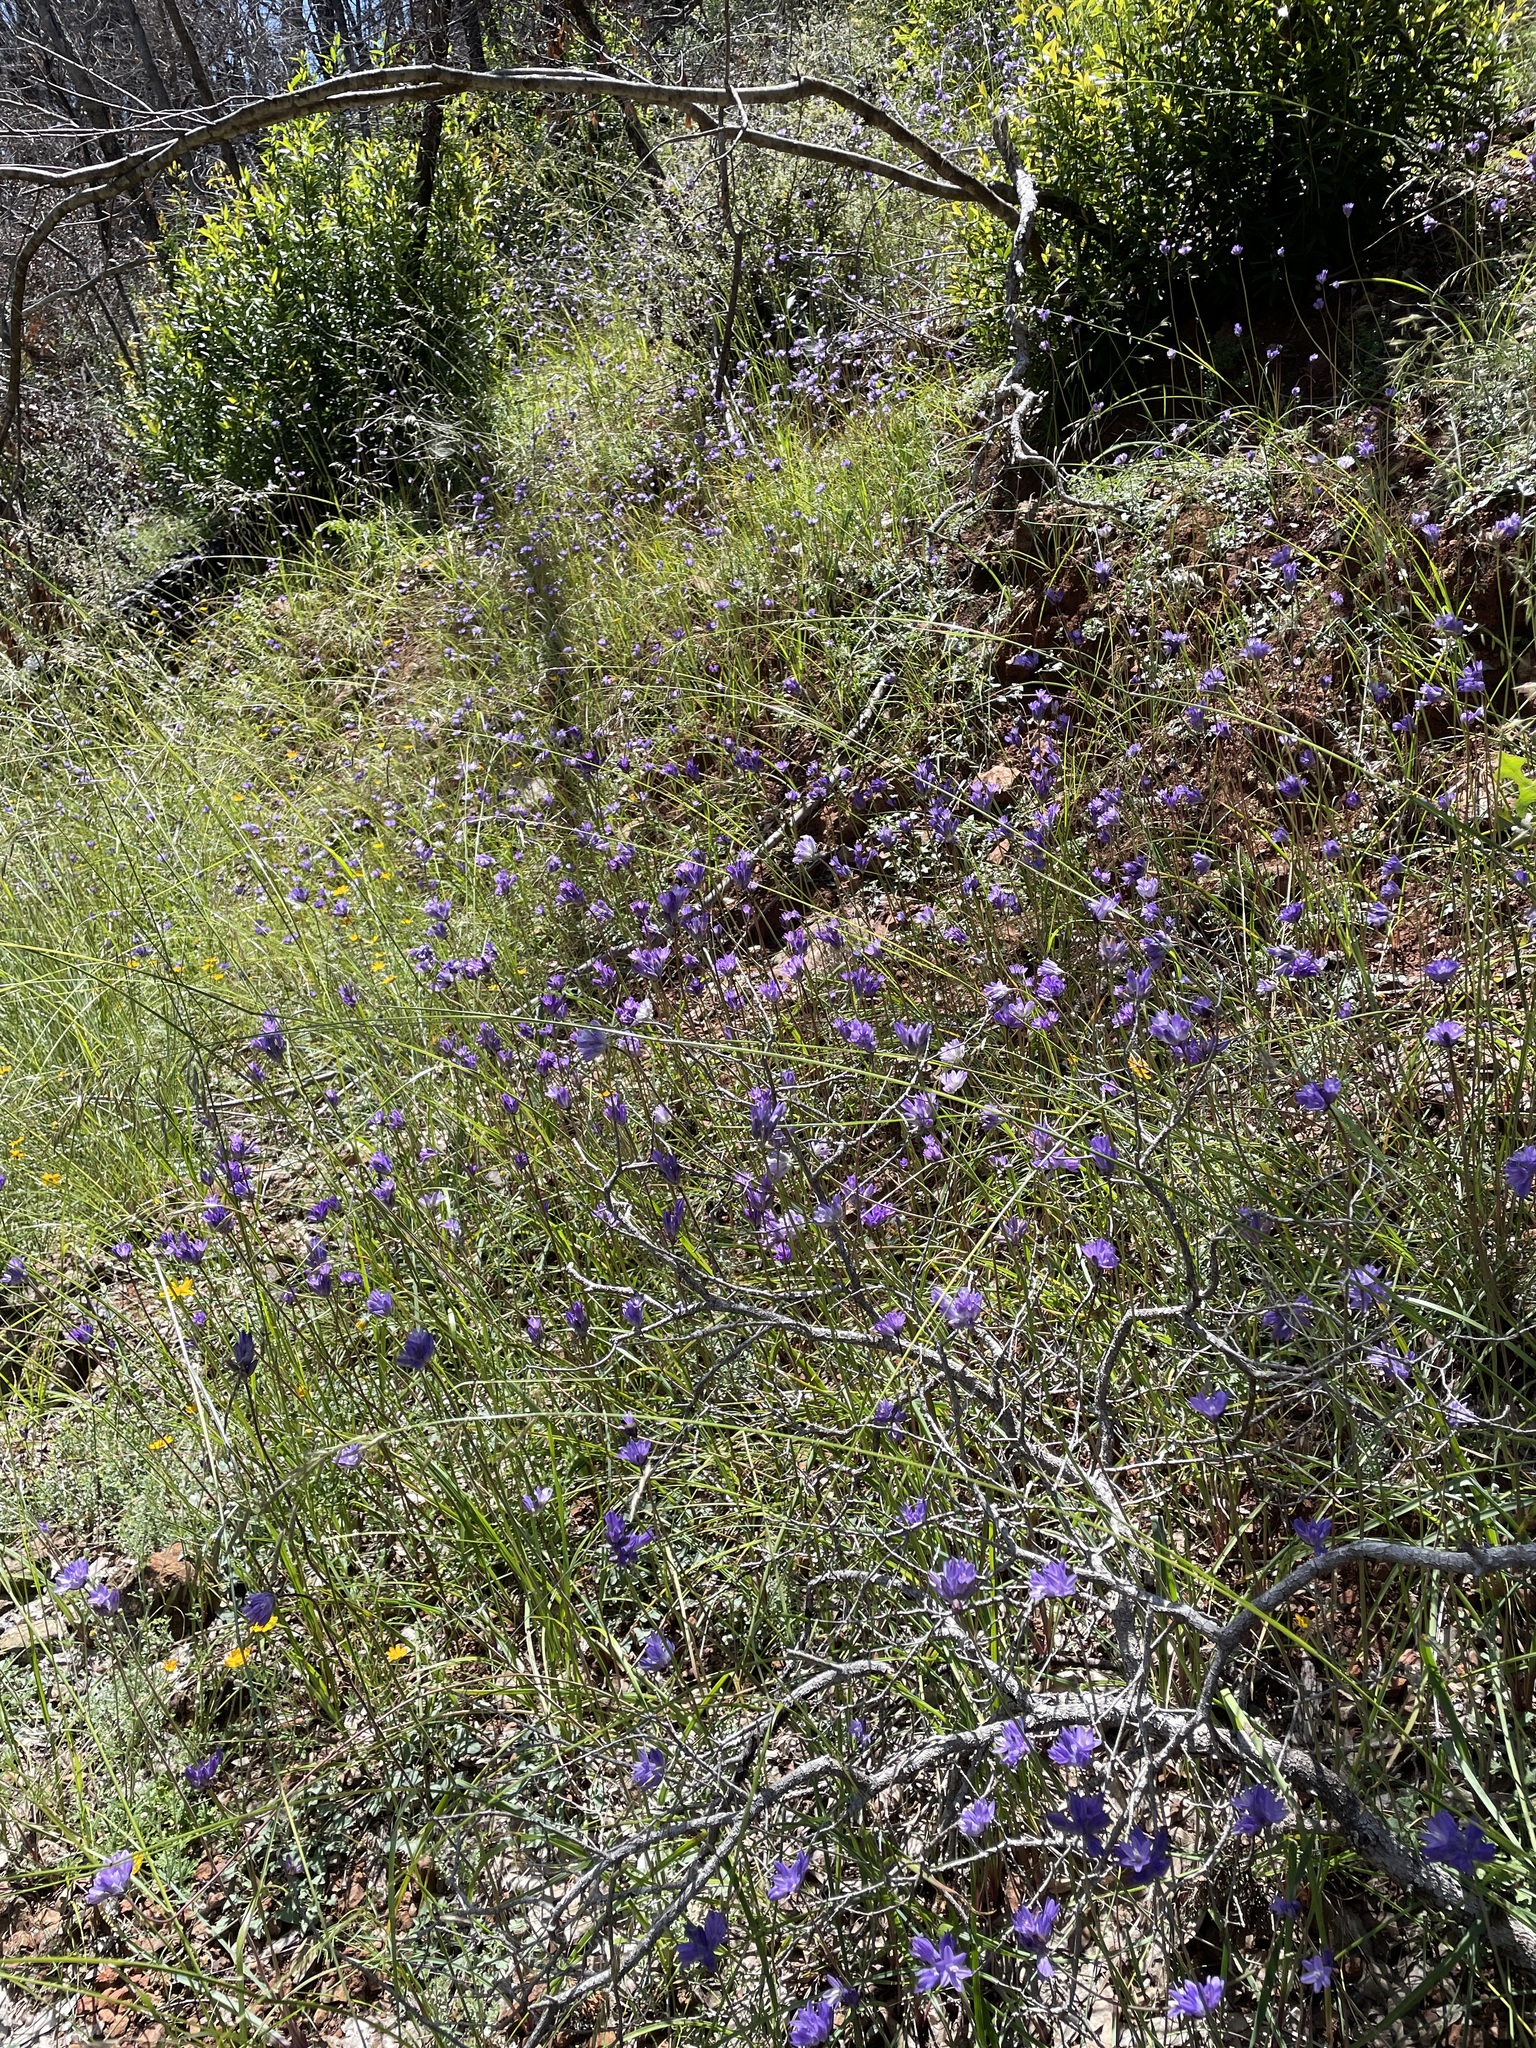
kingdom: Plantae
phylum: Tracheophyta
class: Liliopsida
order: Asparagales
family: Asparagaceae
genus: Dipterostemon
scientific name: Dipterostemon capitatus
